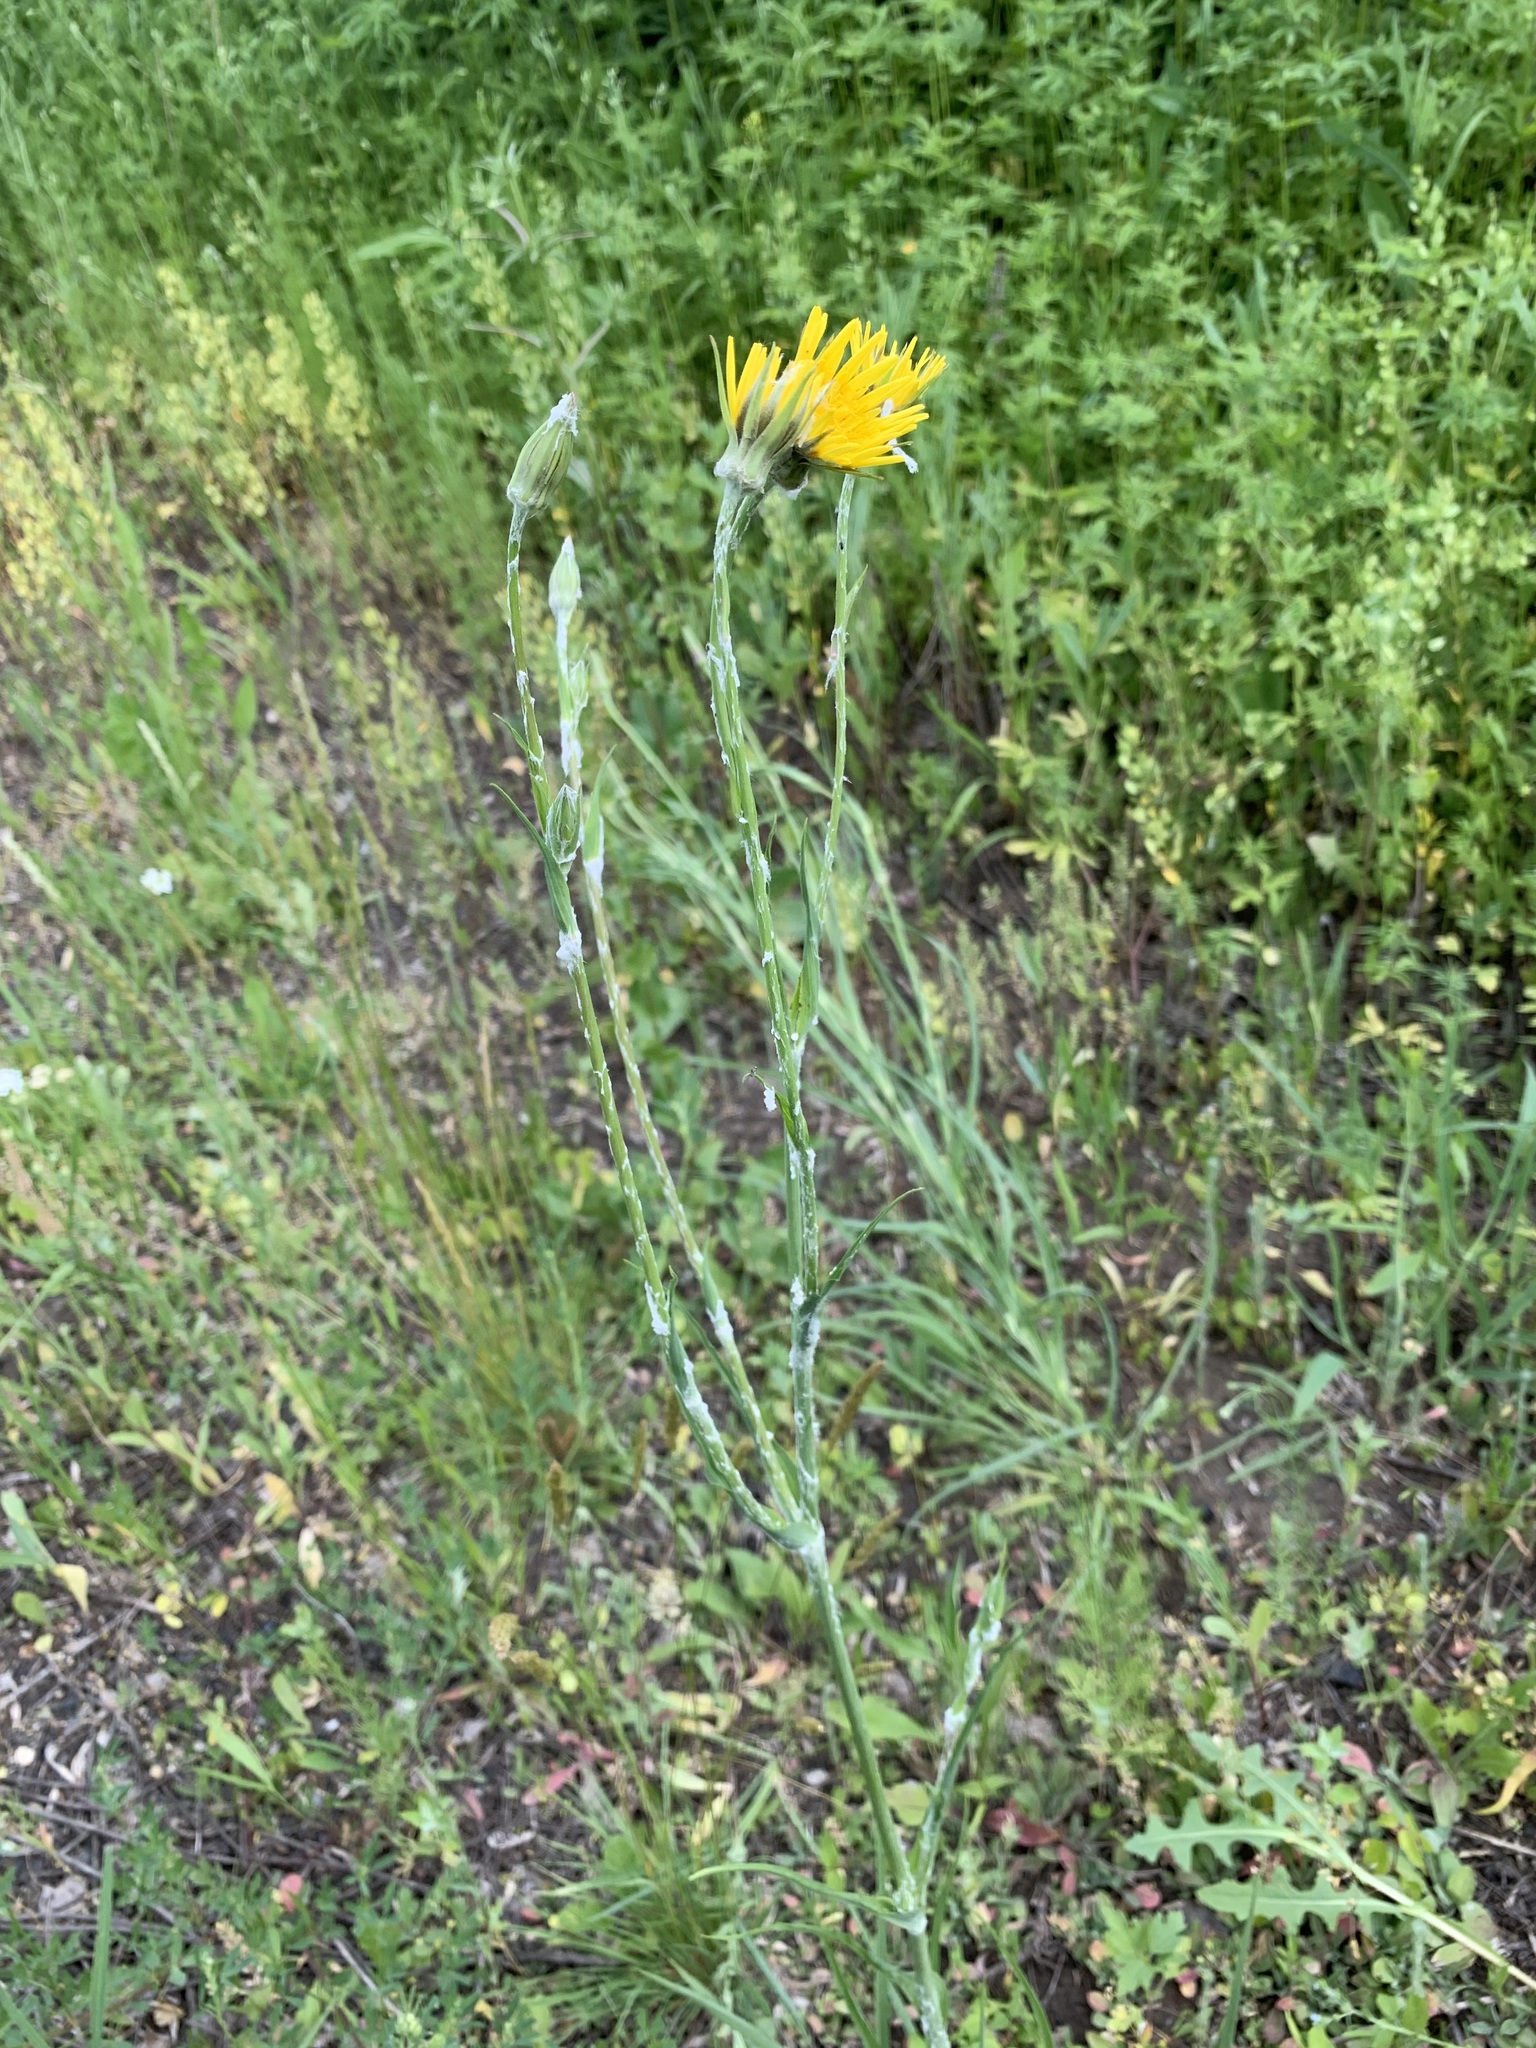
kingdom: Plantae
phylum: Tracheophyta
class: Magnoliopsida
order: Asterales
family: Asteraceae
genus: Tragopogon
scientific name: Tragopogon dasyrhynchus
